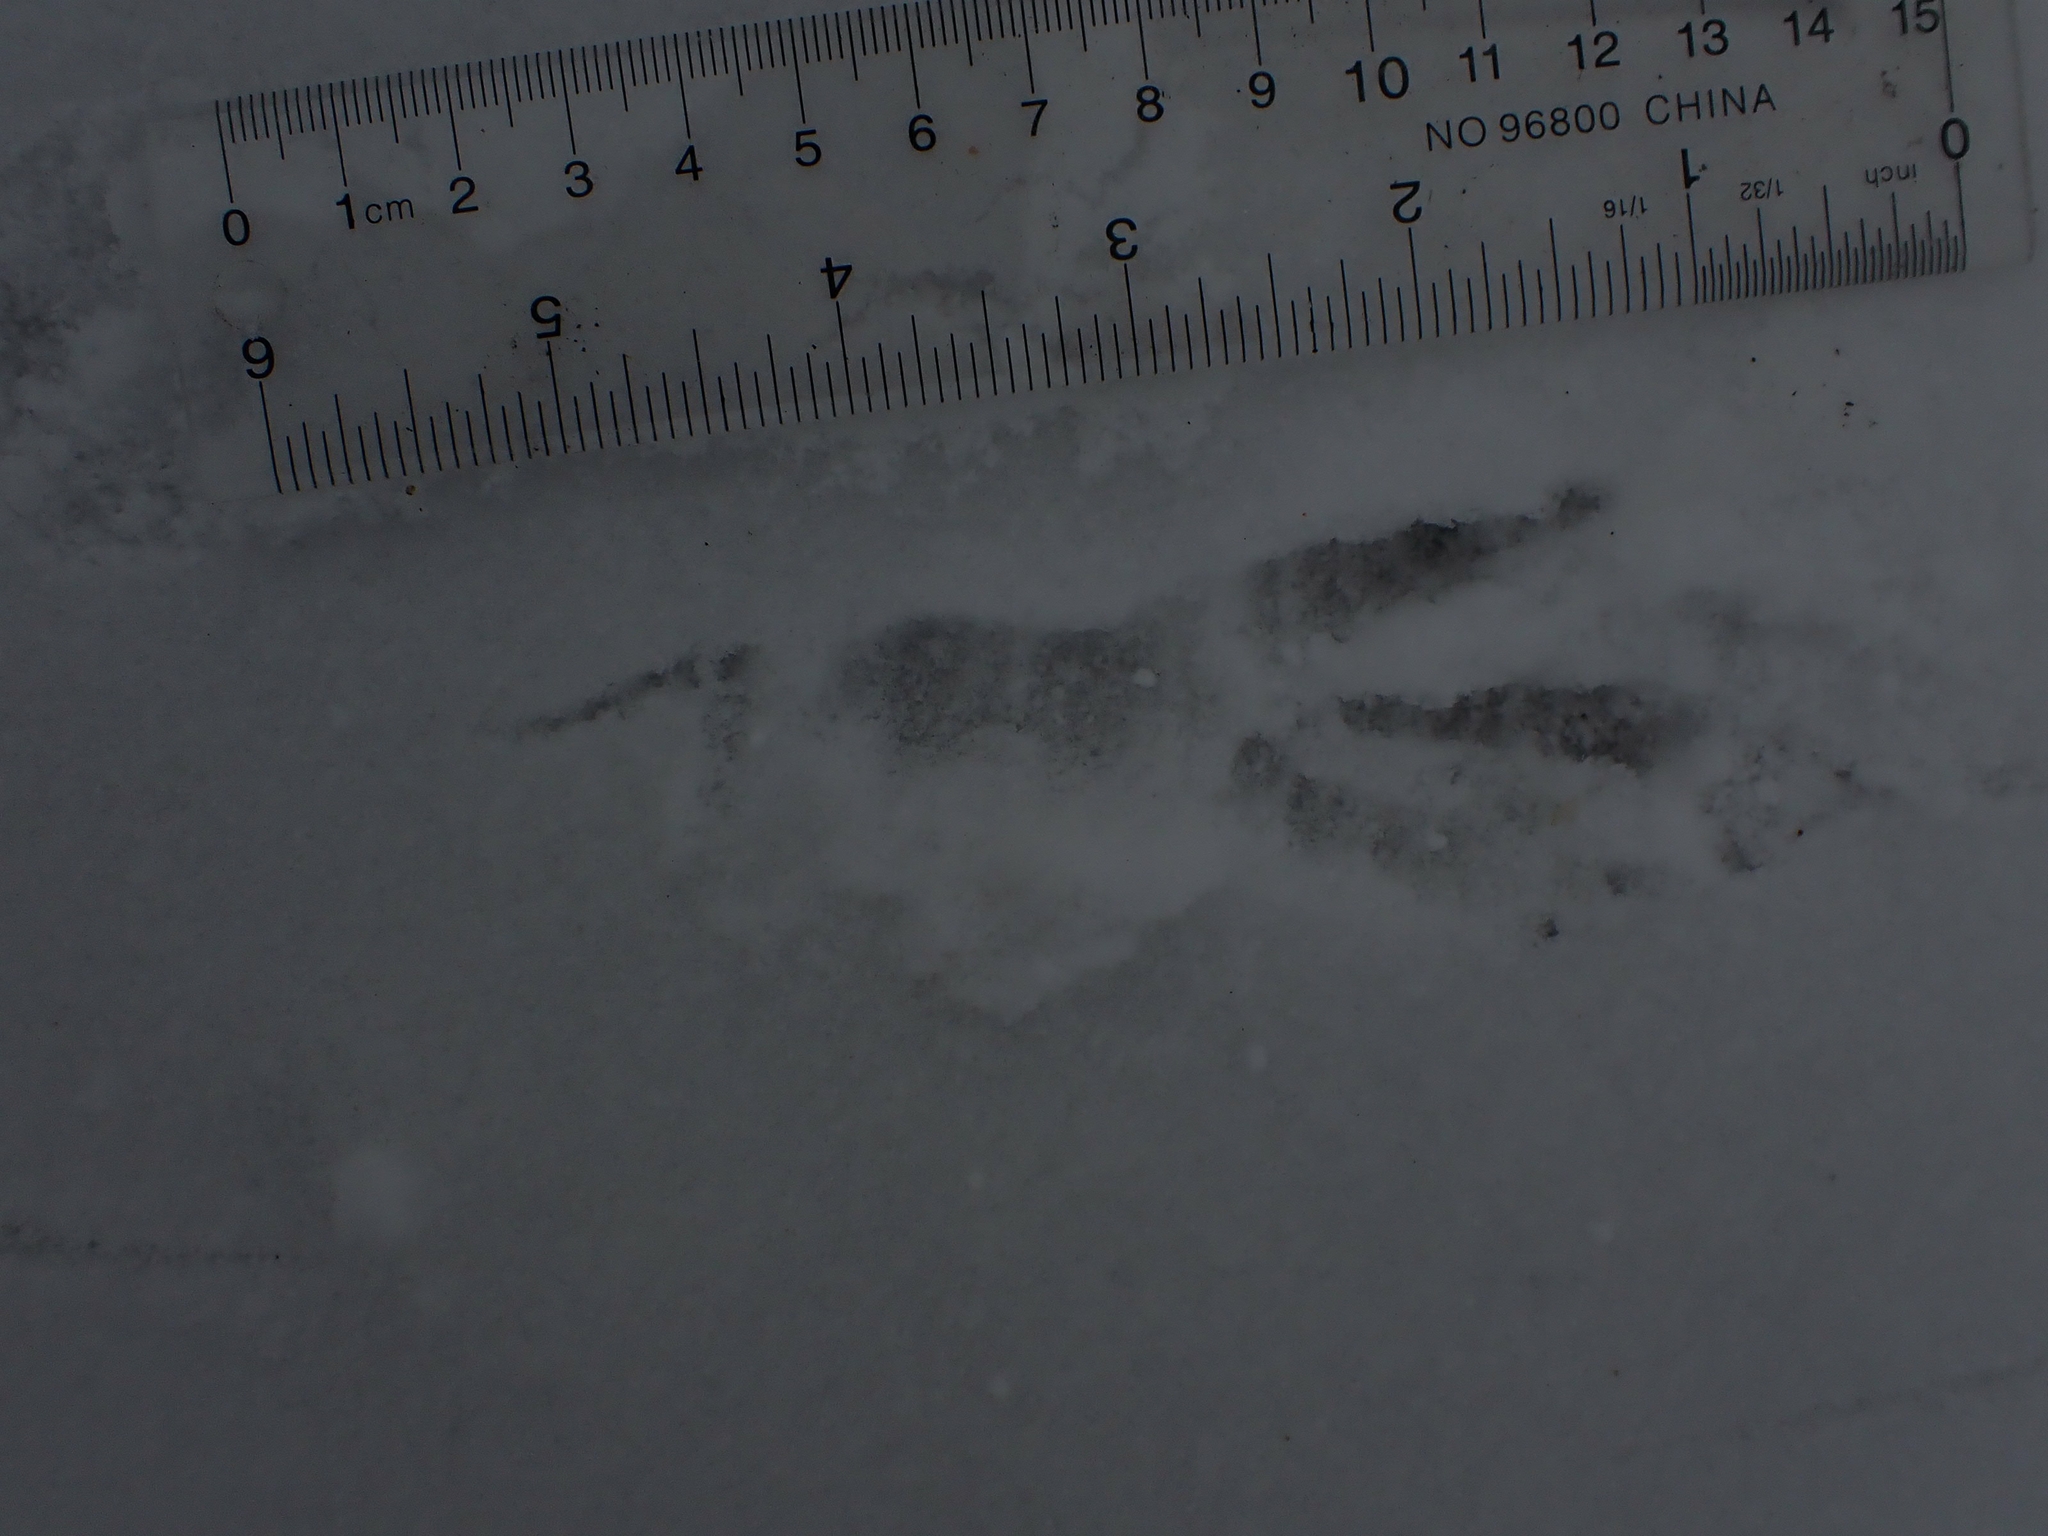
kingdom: Animalia
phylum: Chordata
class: Aves
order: Passeriformes
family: Corvidae
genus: Corvus
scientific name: Corvus corax
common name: Common raven
